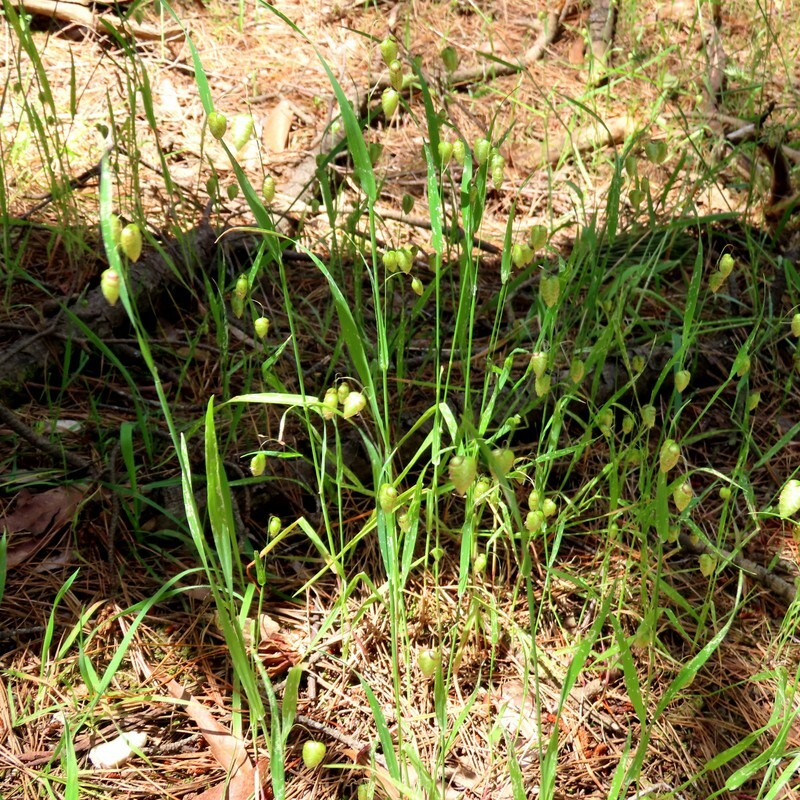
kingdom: Plantae
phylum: Tracheophyta
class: Liliopsida
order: Poales
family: Poaceae
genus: Briza
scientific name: Briza maxima
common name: Big quakinggrass
